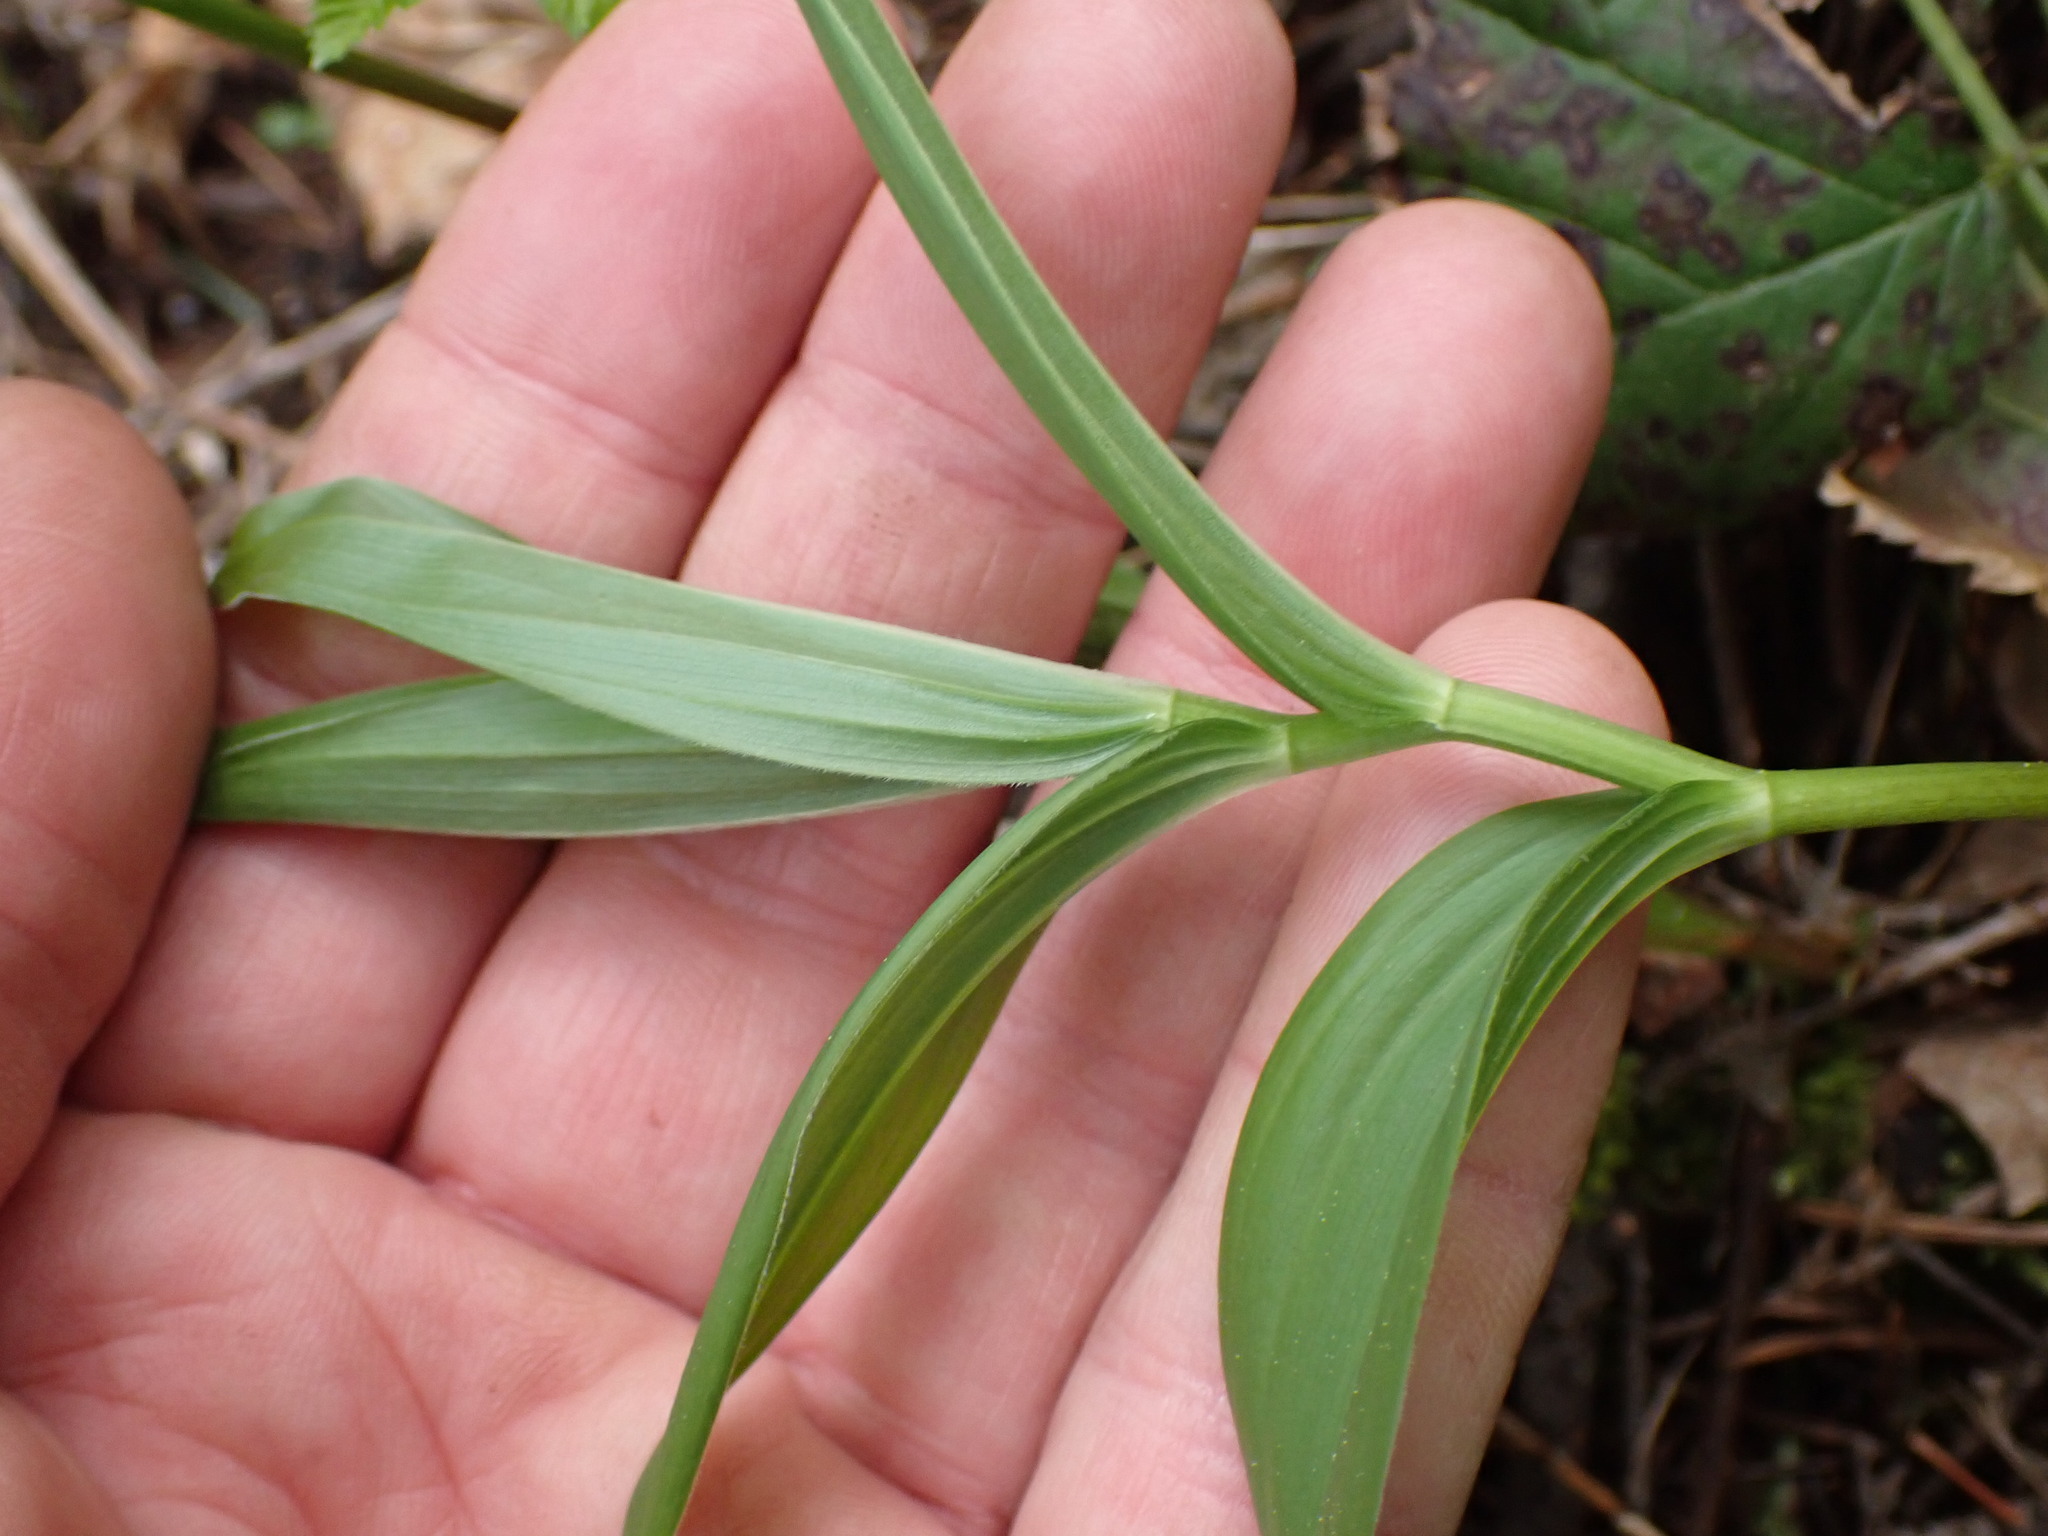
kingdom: Plantae
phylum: Tracheophyta
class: Liliopsida
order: Asparagales
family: Asparagaceae
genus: Maianthemum
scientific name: Maianthemum racemosum
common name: False spikenard
